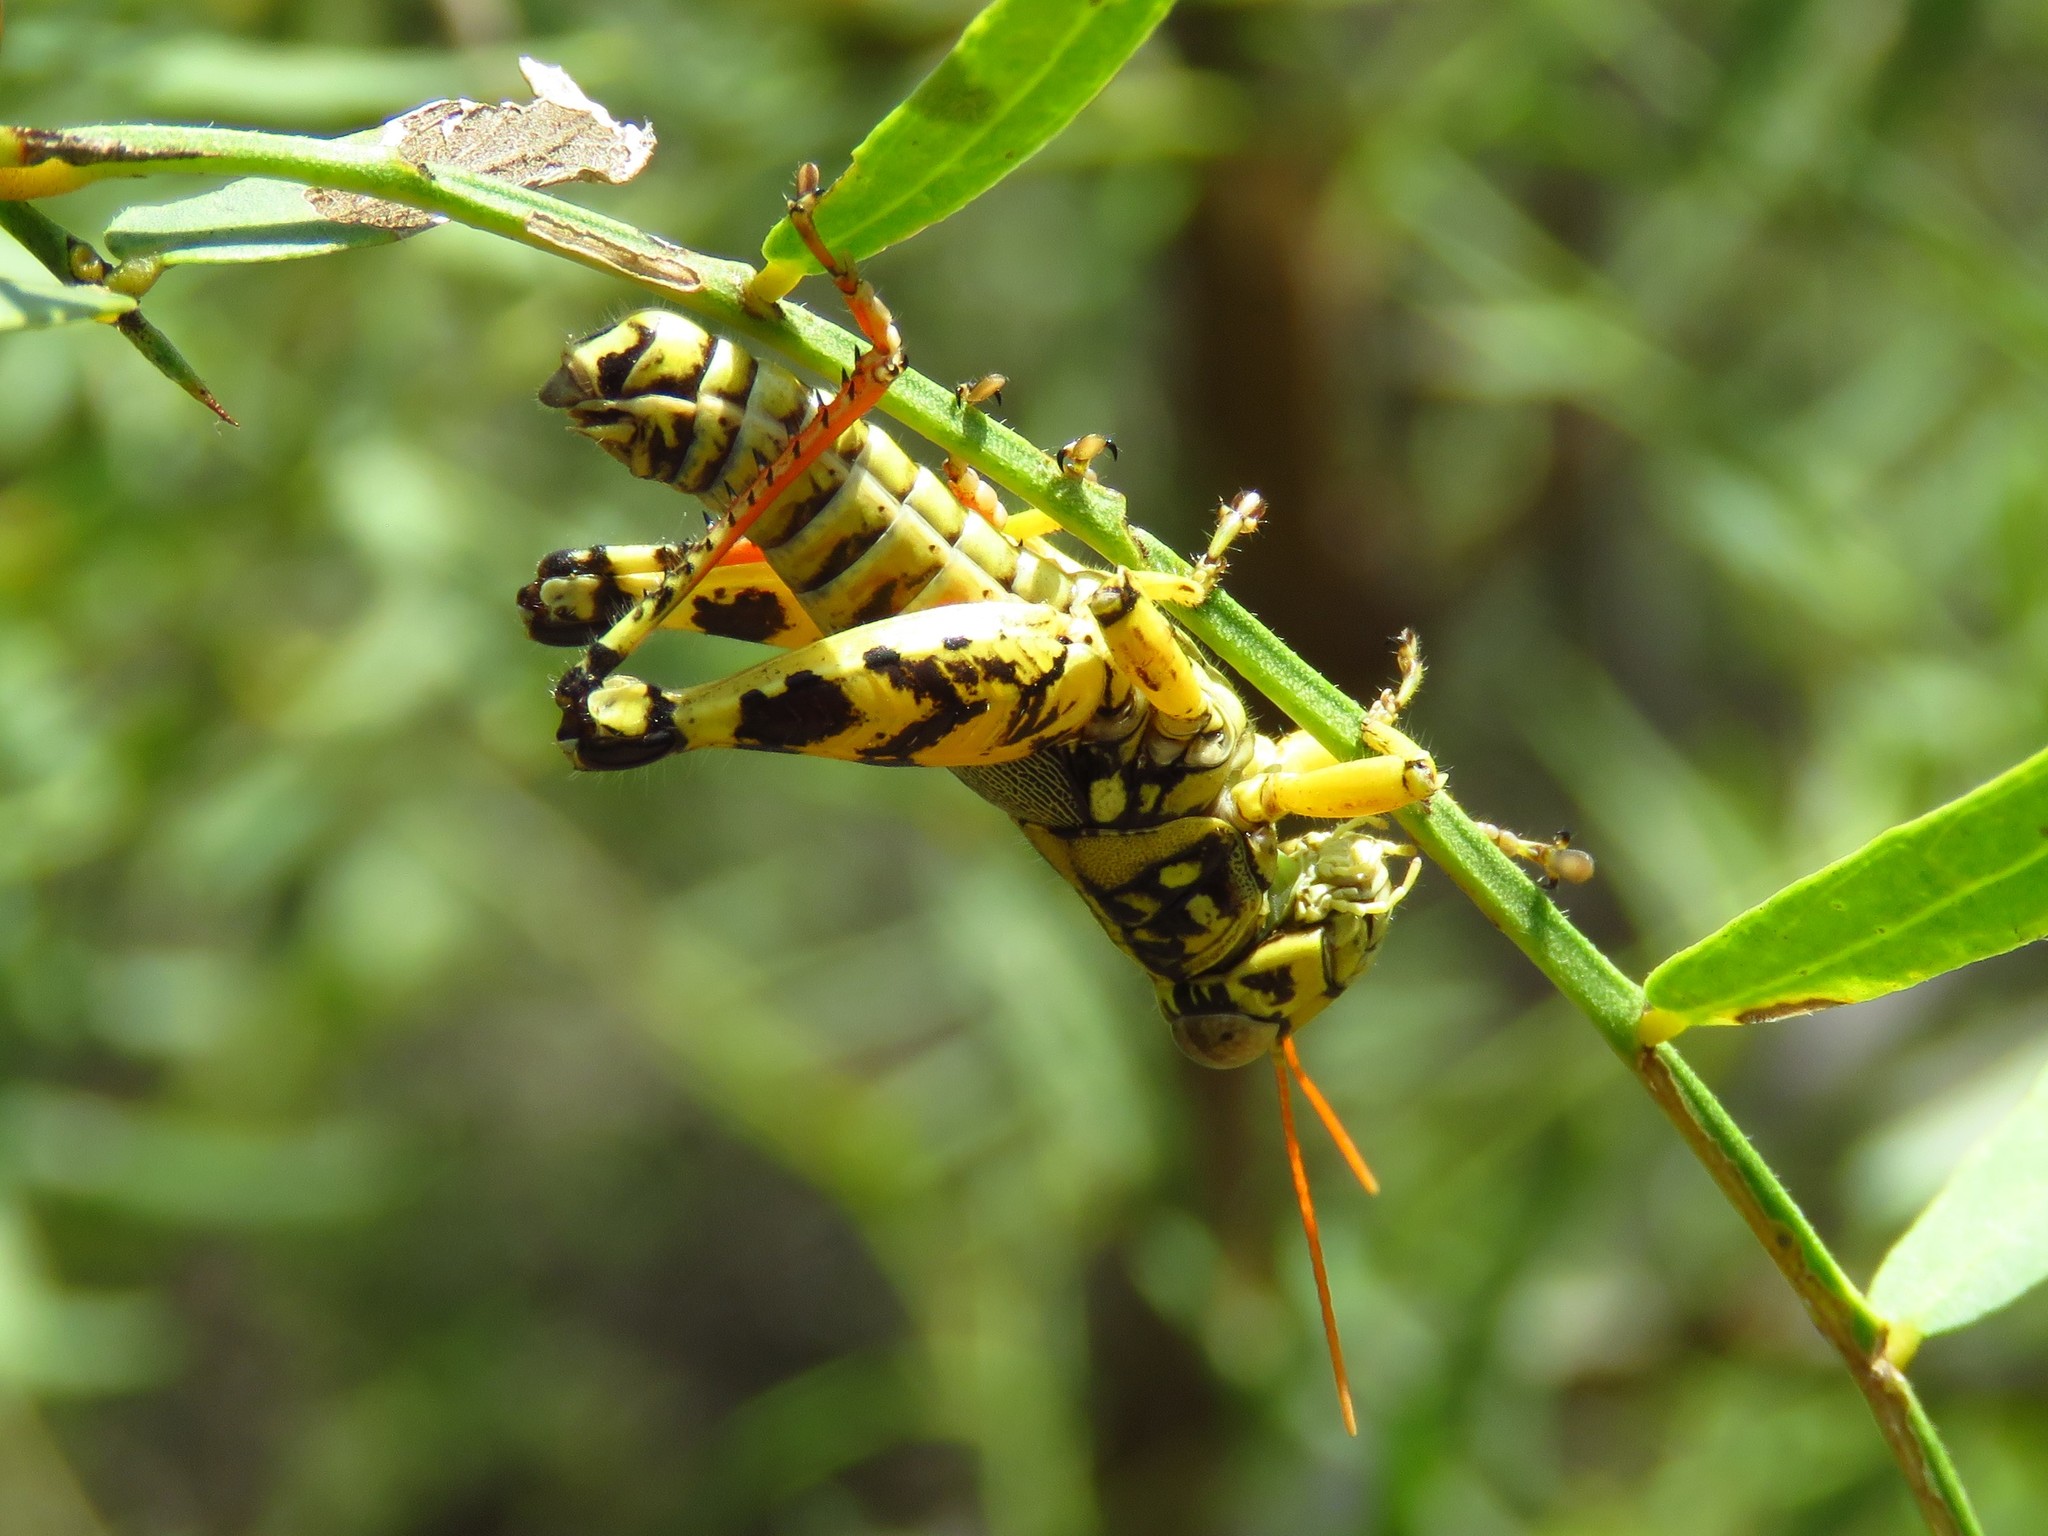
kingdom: Animalia
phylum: Arthropoda
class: Insecta
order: Orthoptera
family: Acrididae
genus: Agroecotettix
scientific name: Agroecotettix modestus
